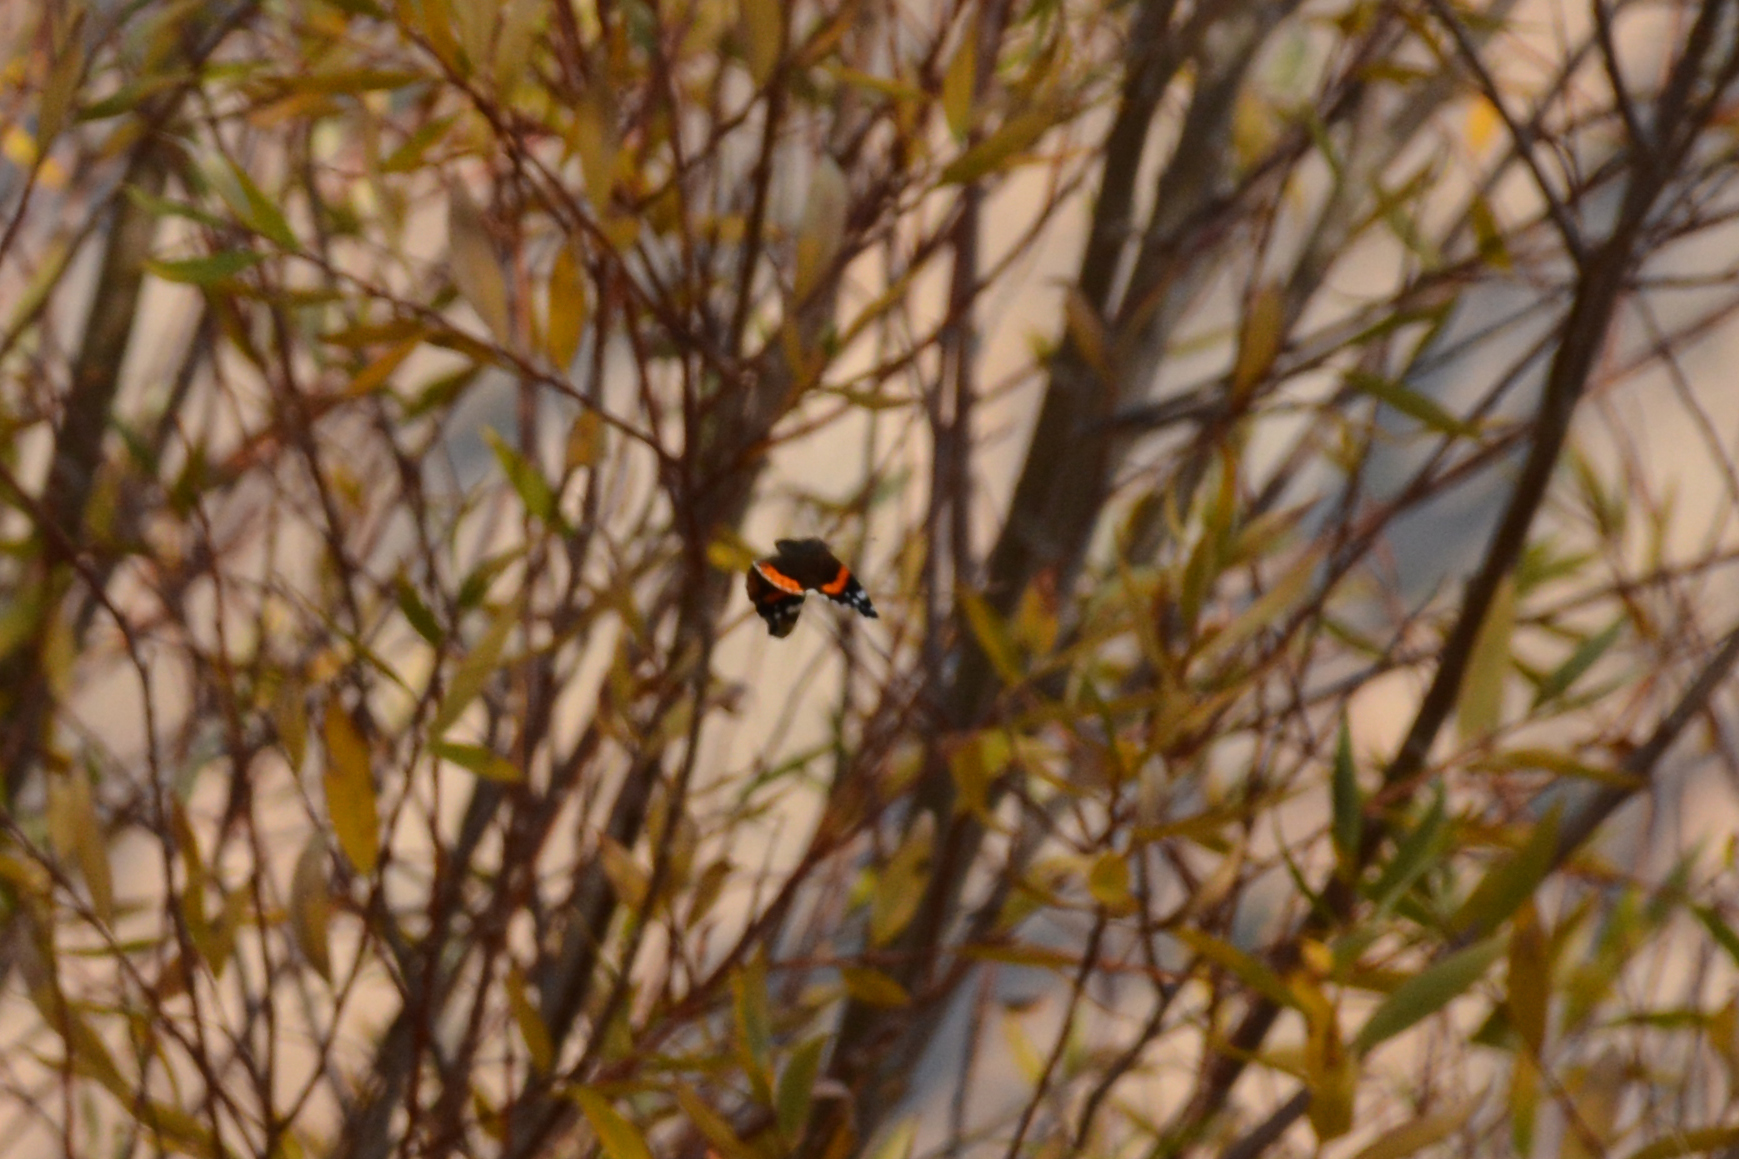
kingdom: Animalia
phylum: Arthropoda
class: Insecta
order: Lepidoptera
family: Nymphalidae
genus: Vanessa
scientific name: Vanessa atalanta
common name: Red admiral
